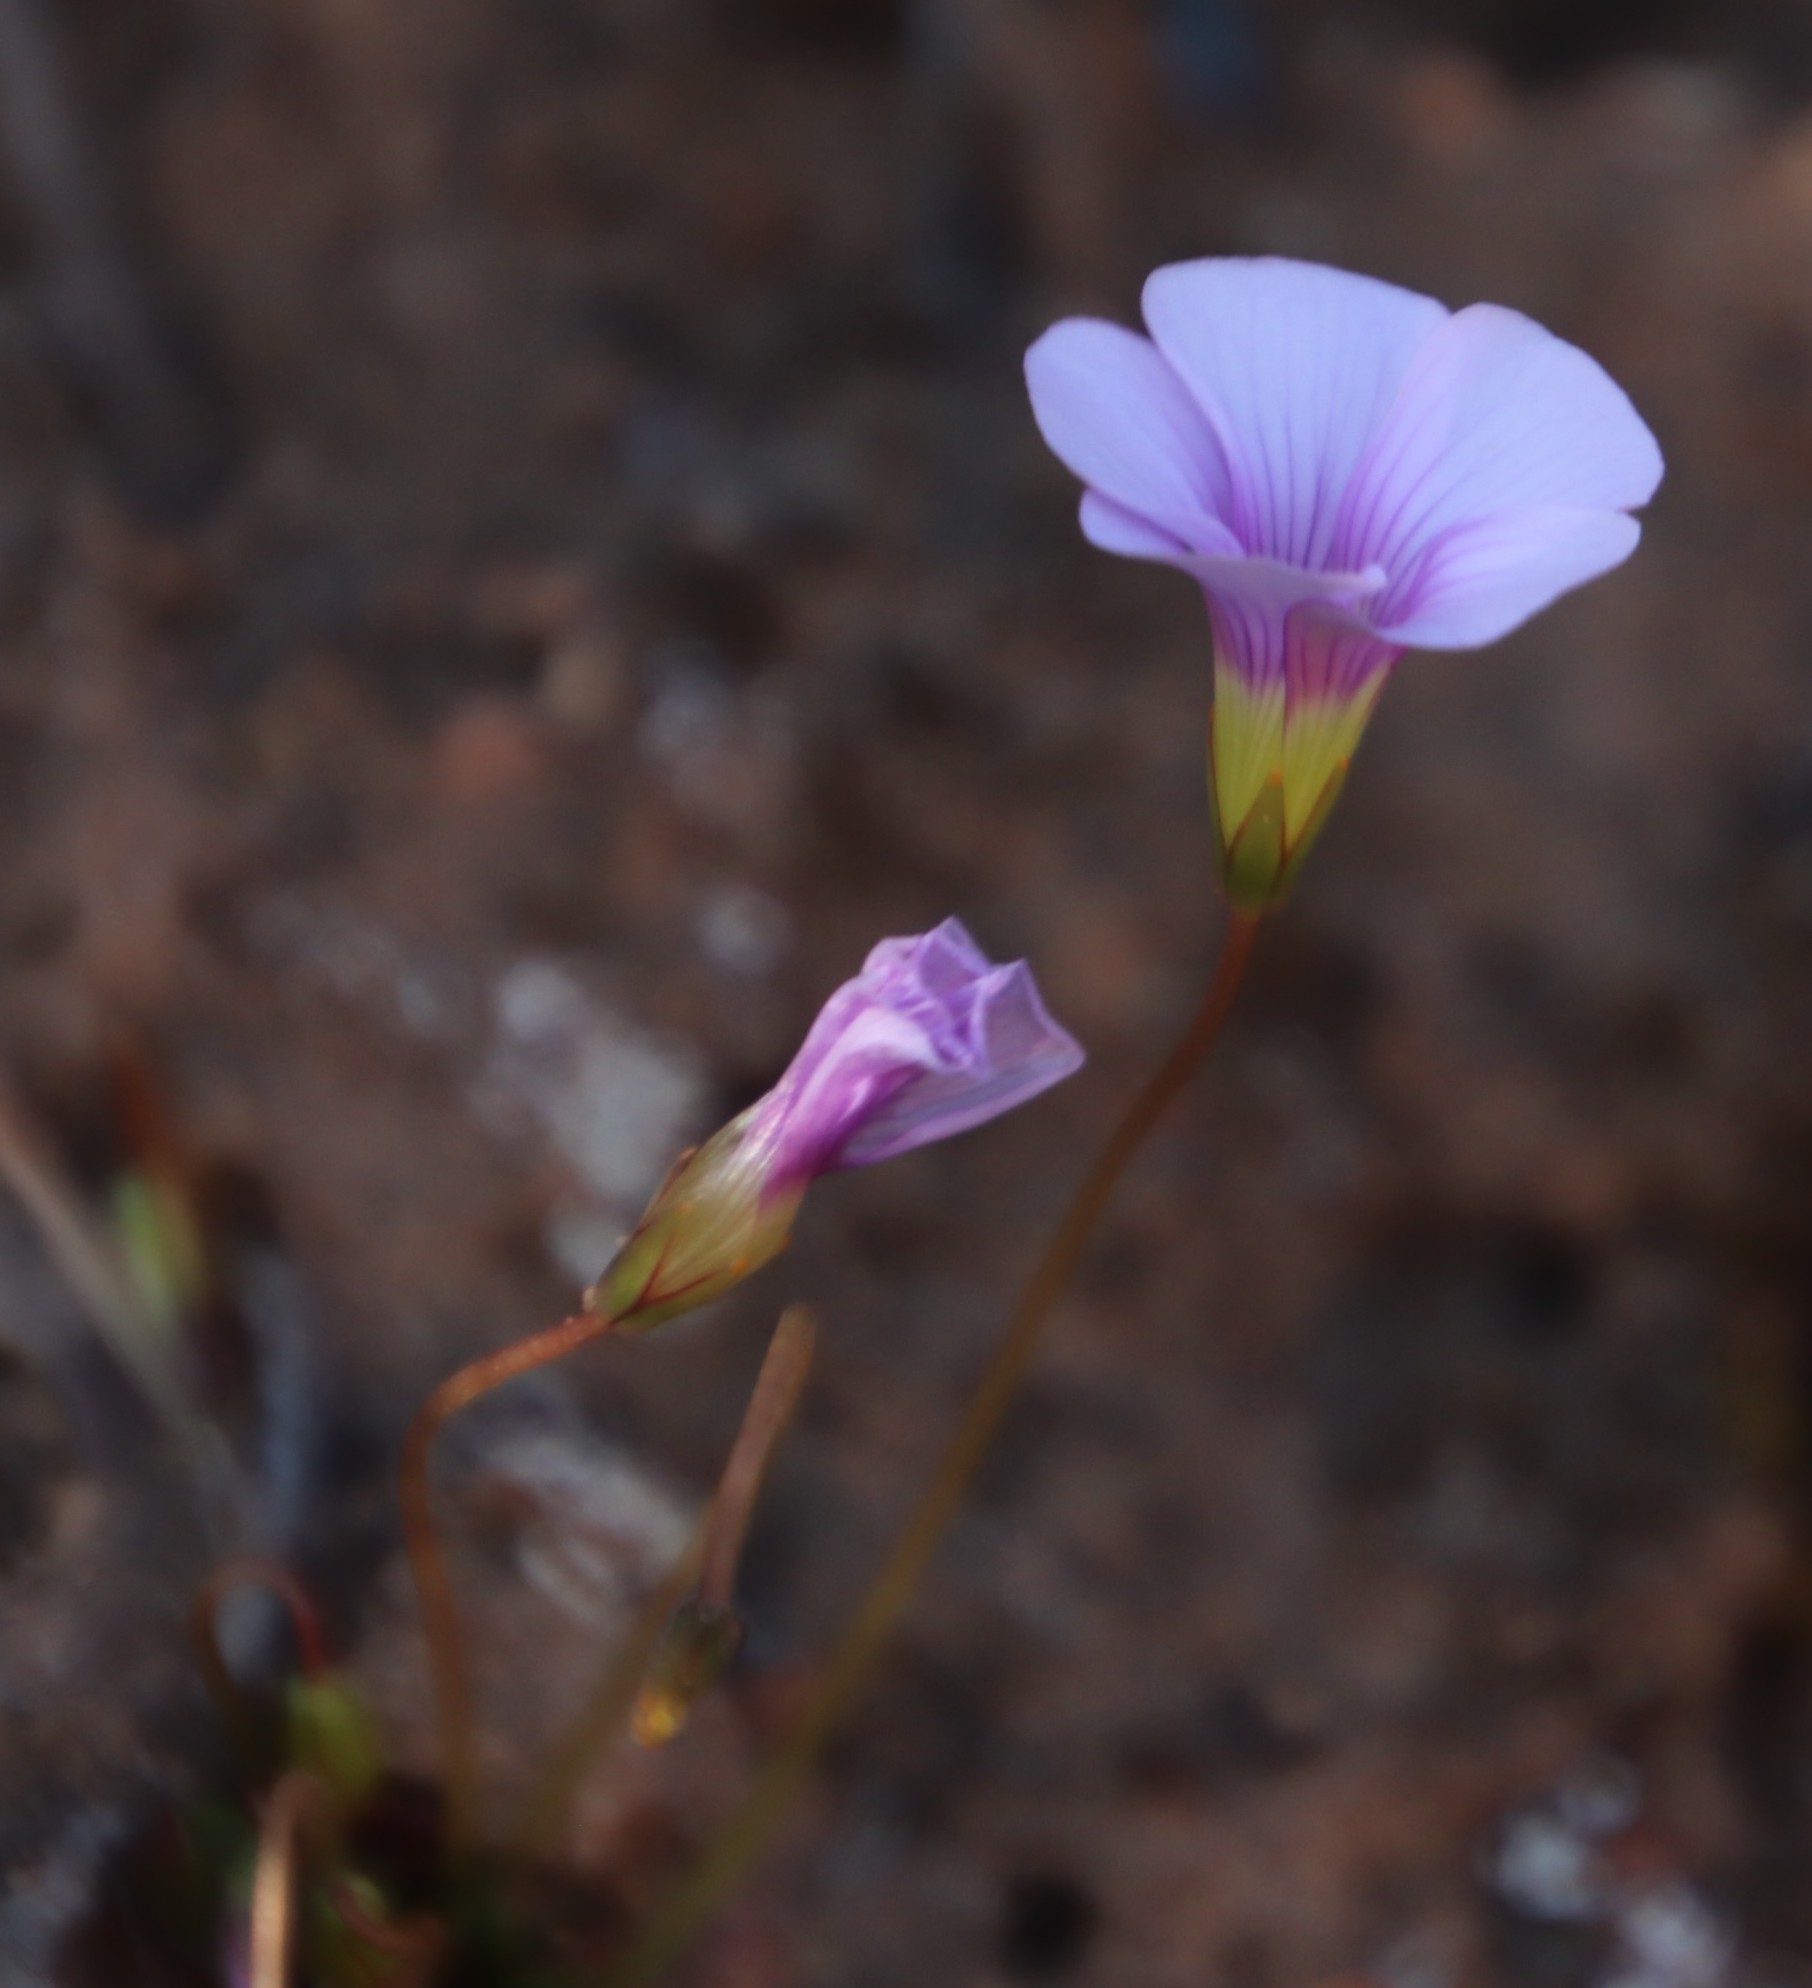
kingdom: Plantae
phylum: Tracheophyta
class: Magnoliopsida
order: Oxalidales
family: Oxalidaceae
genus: Oxalis
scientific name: Oxalis commutata
